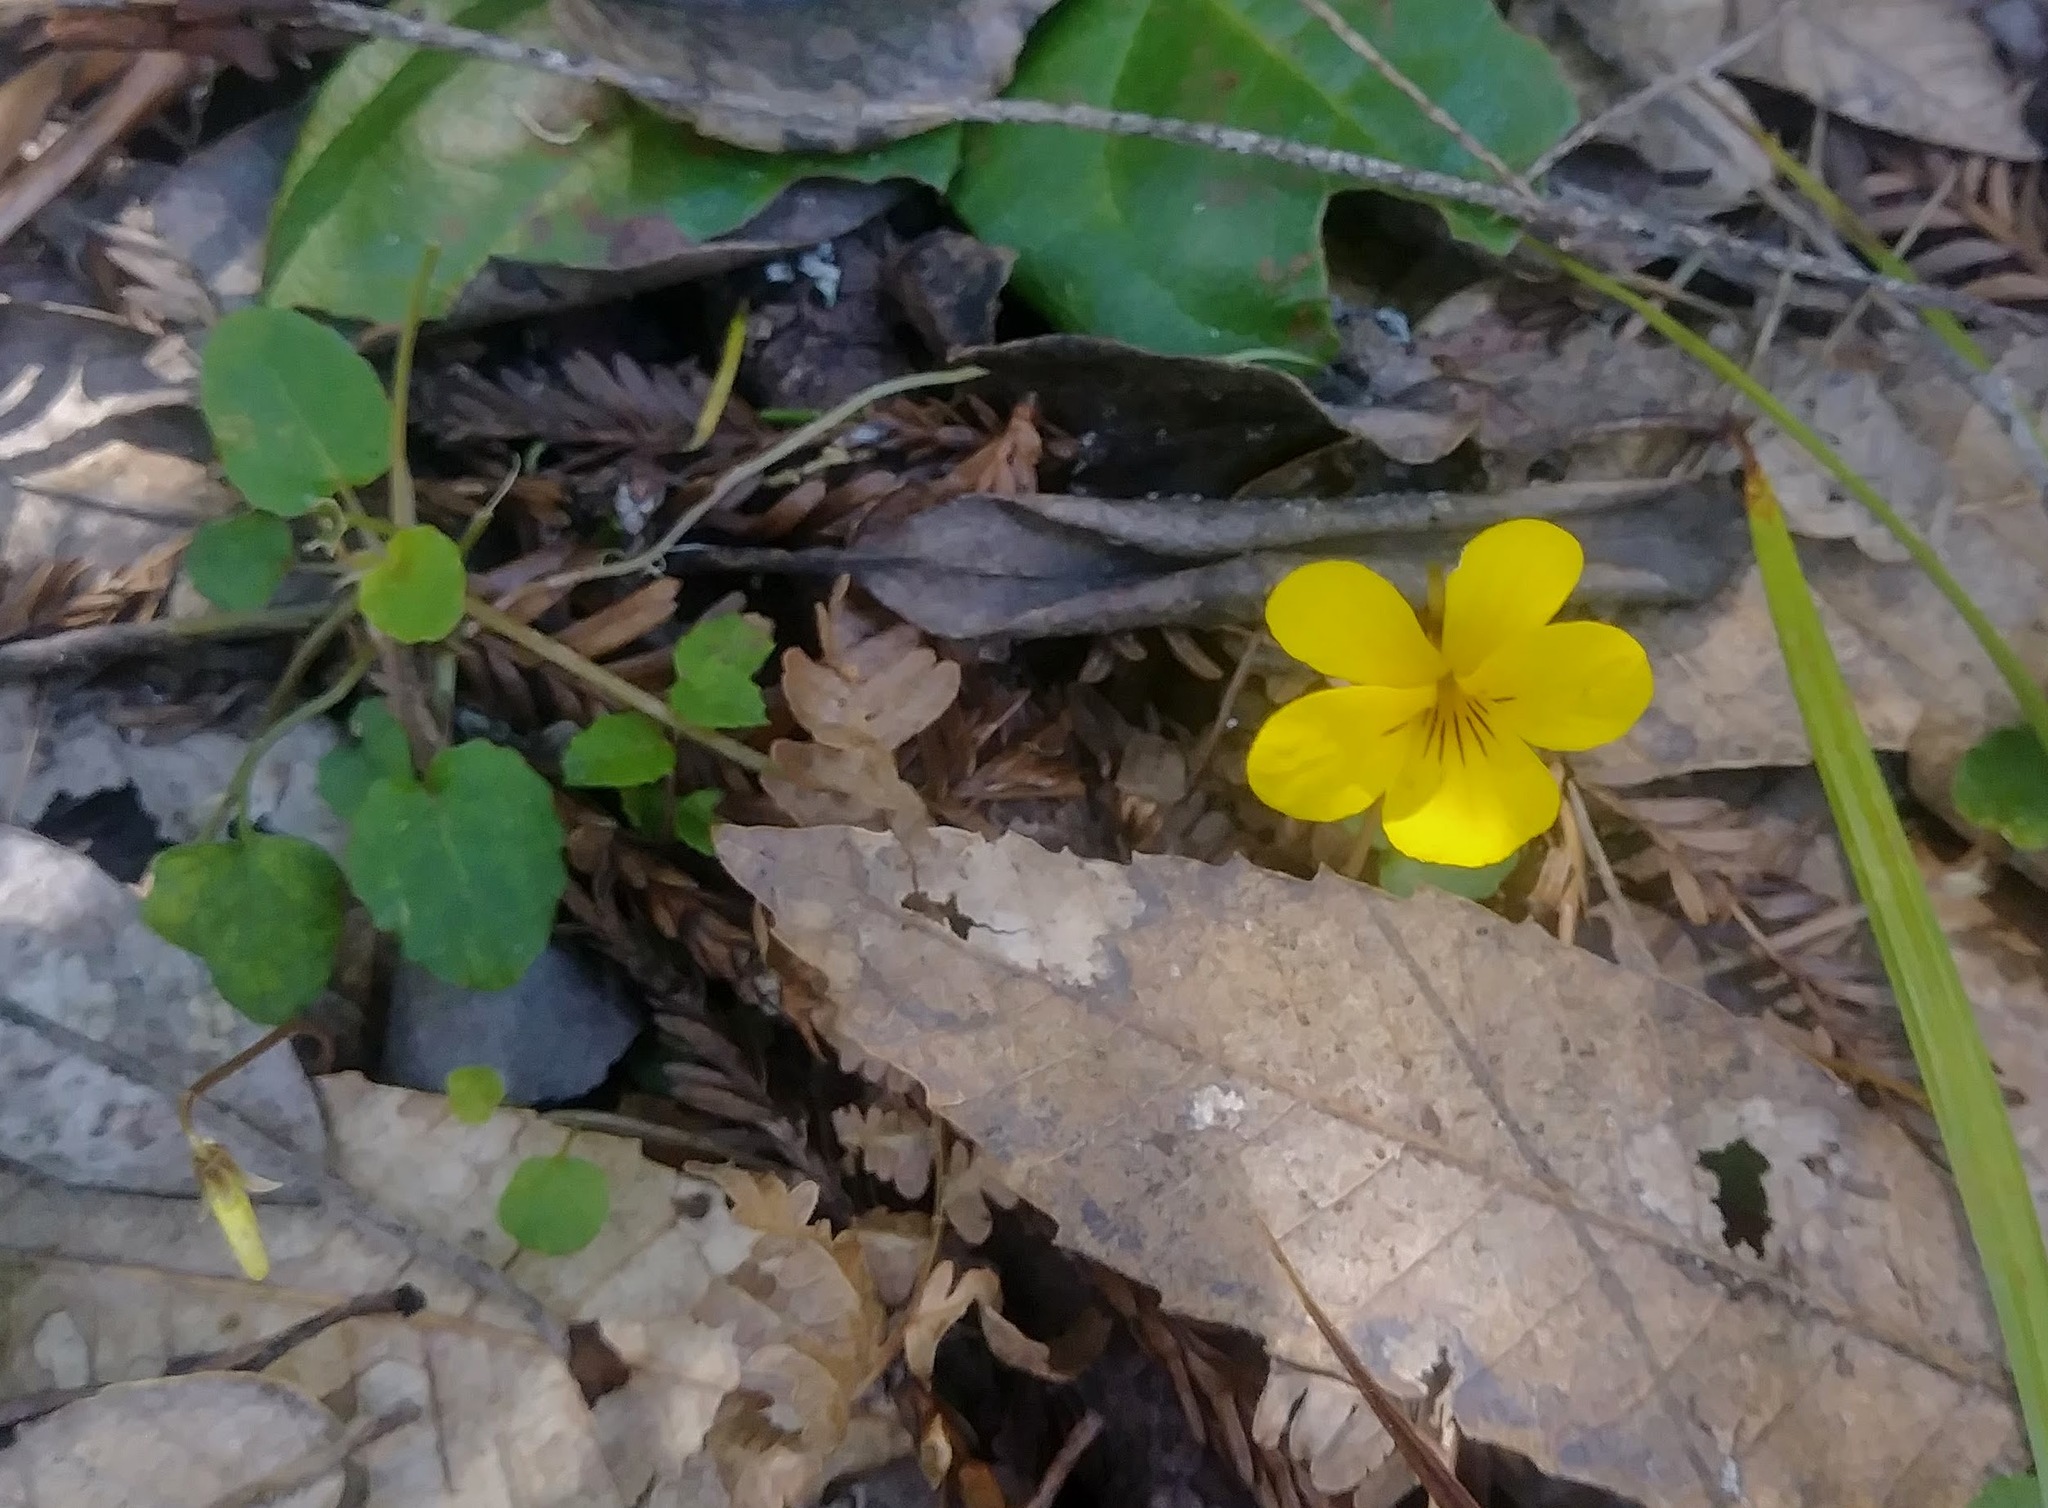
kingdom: Plantae
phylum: Tracheophyta
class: Magnoliopsida
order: Malpighiales
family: Violaceae
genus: Viola
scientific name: Viola sempervirens
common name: Evergreen violet
